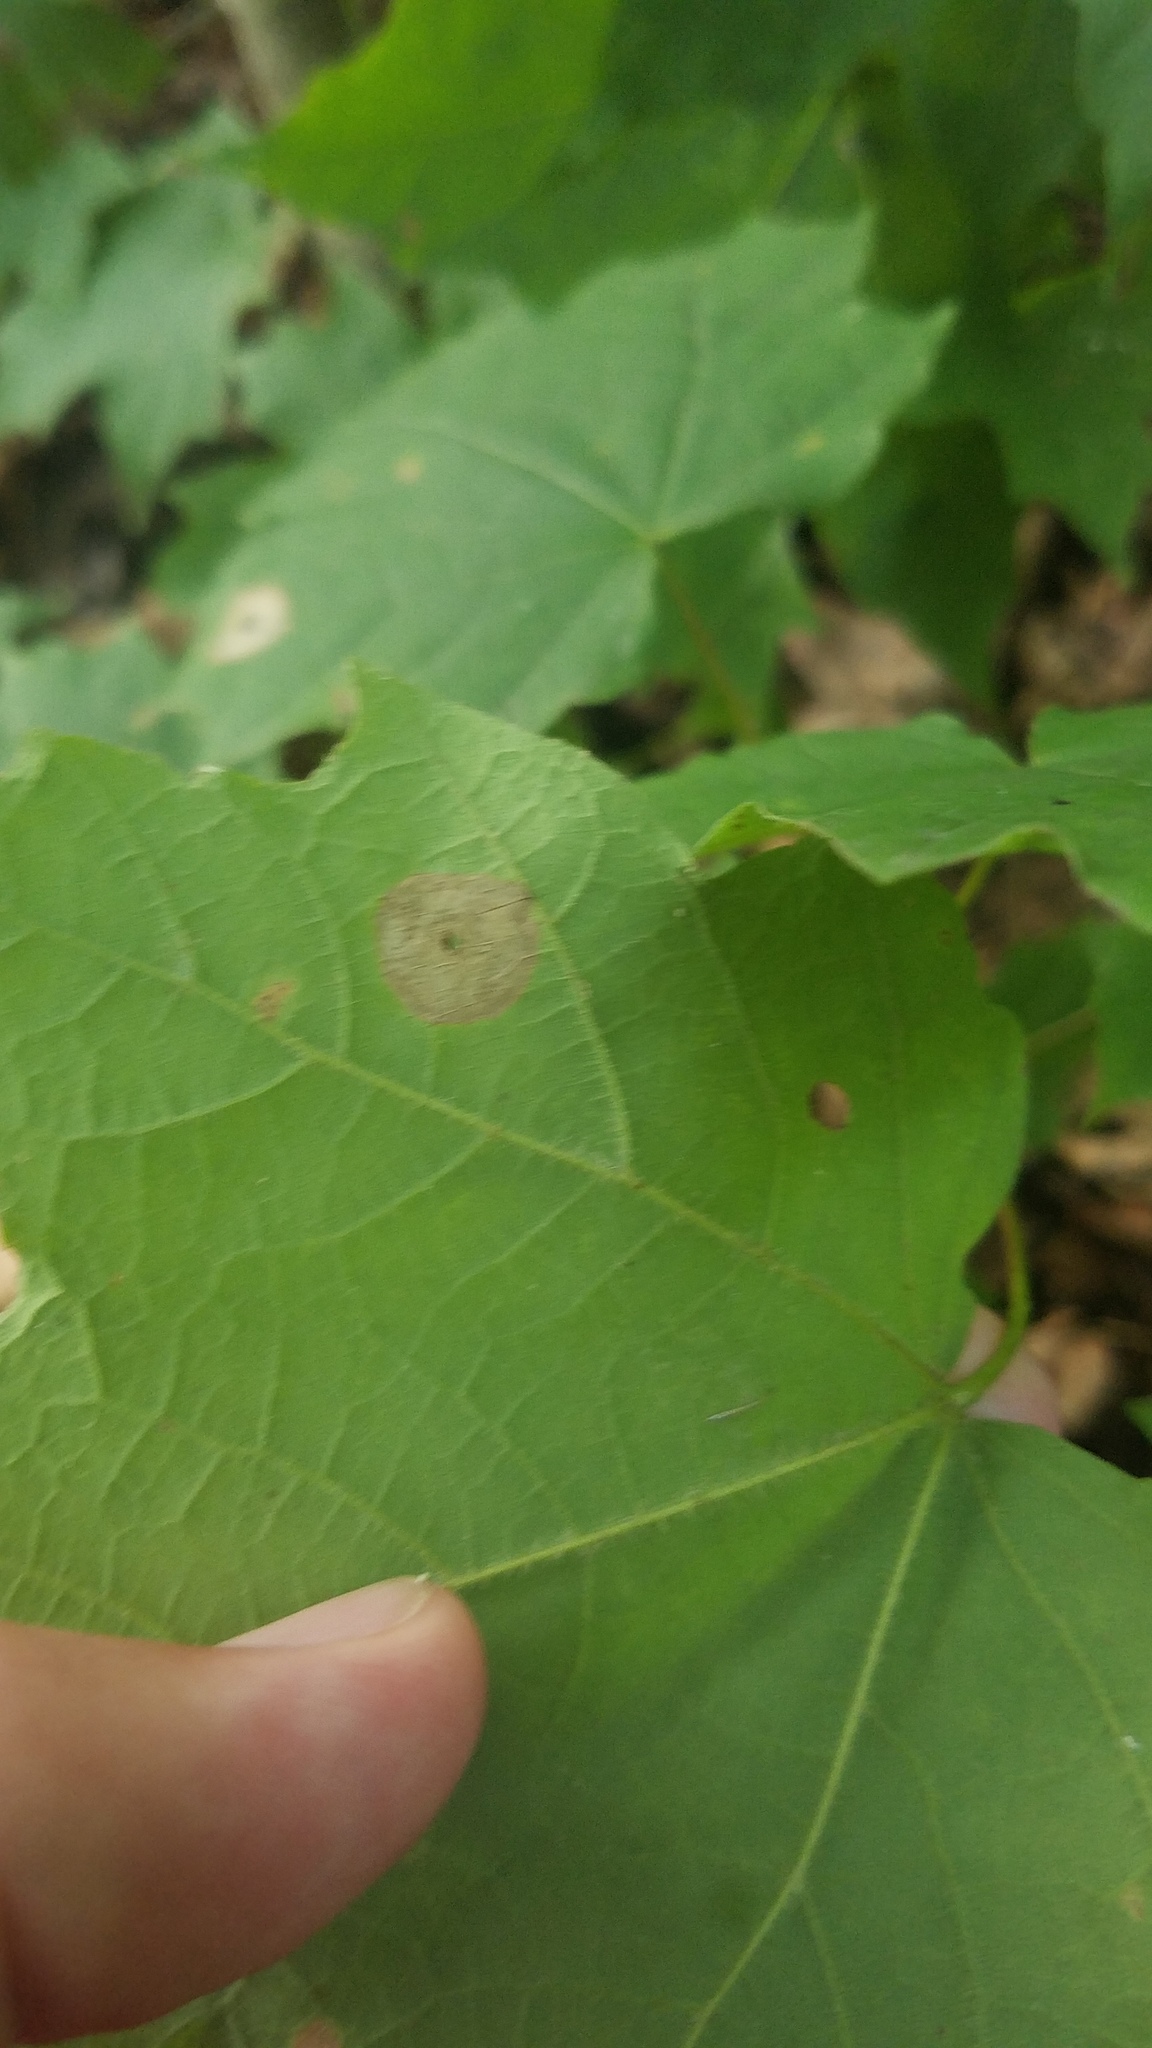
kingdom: Animalia
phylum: Arthropoda
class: Insecta
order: Diptera
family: Cecidomyiidae
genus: Acericecis
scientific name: Acericecis ocellaris
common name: Ocellate gall midge
